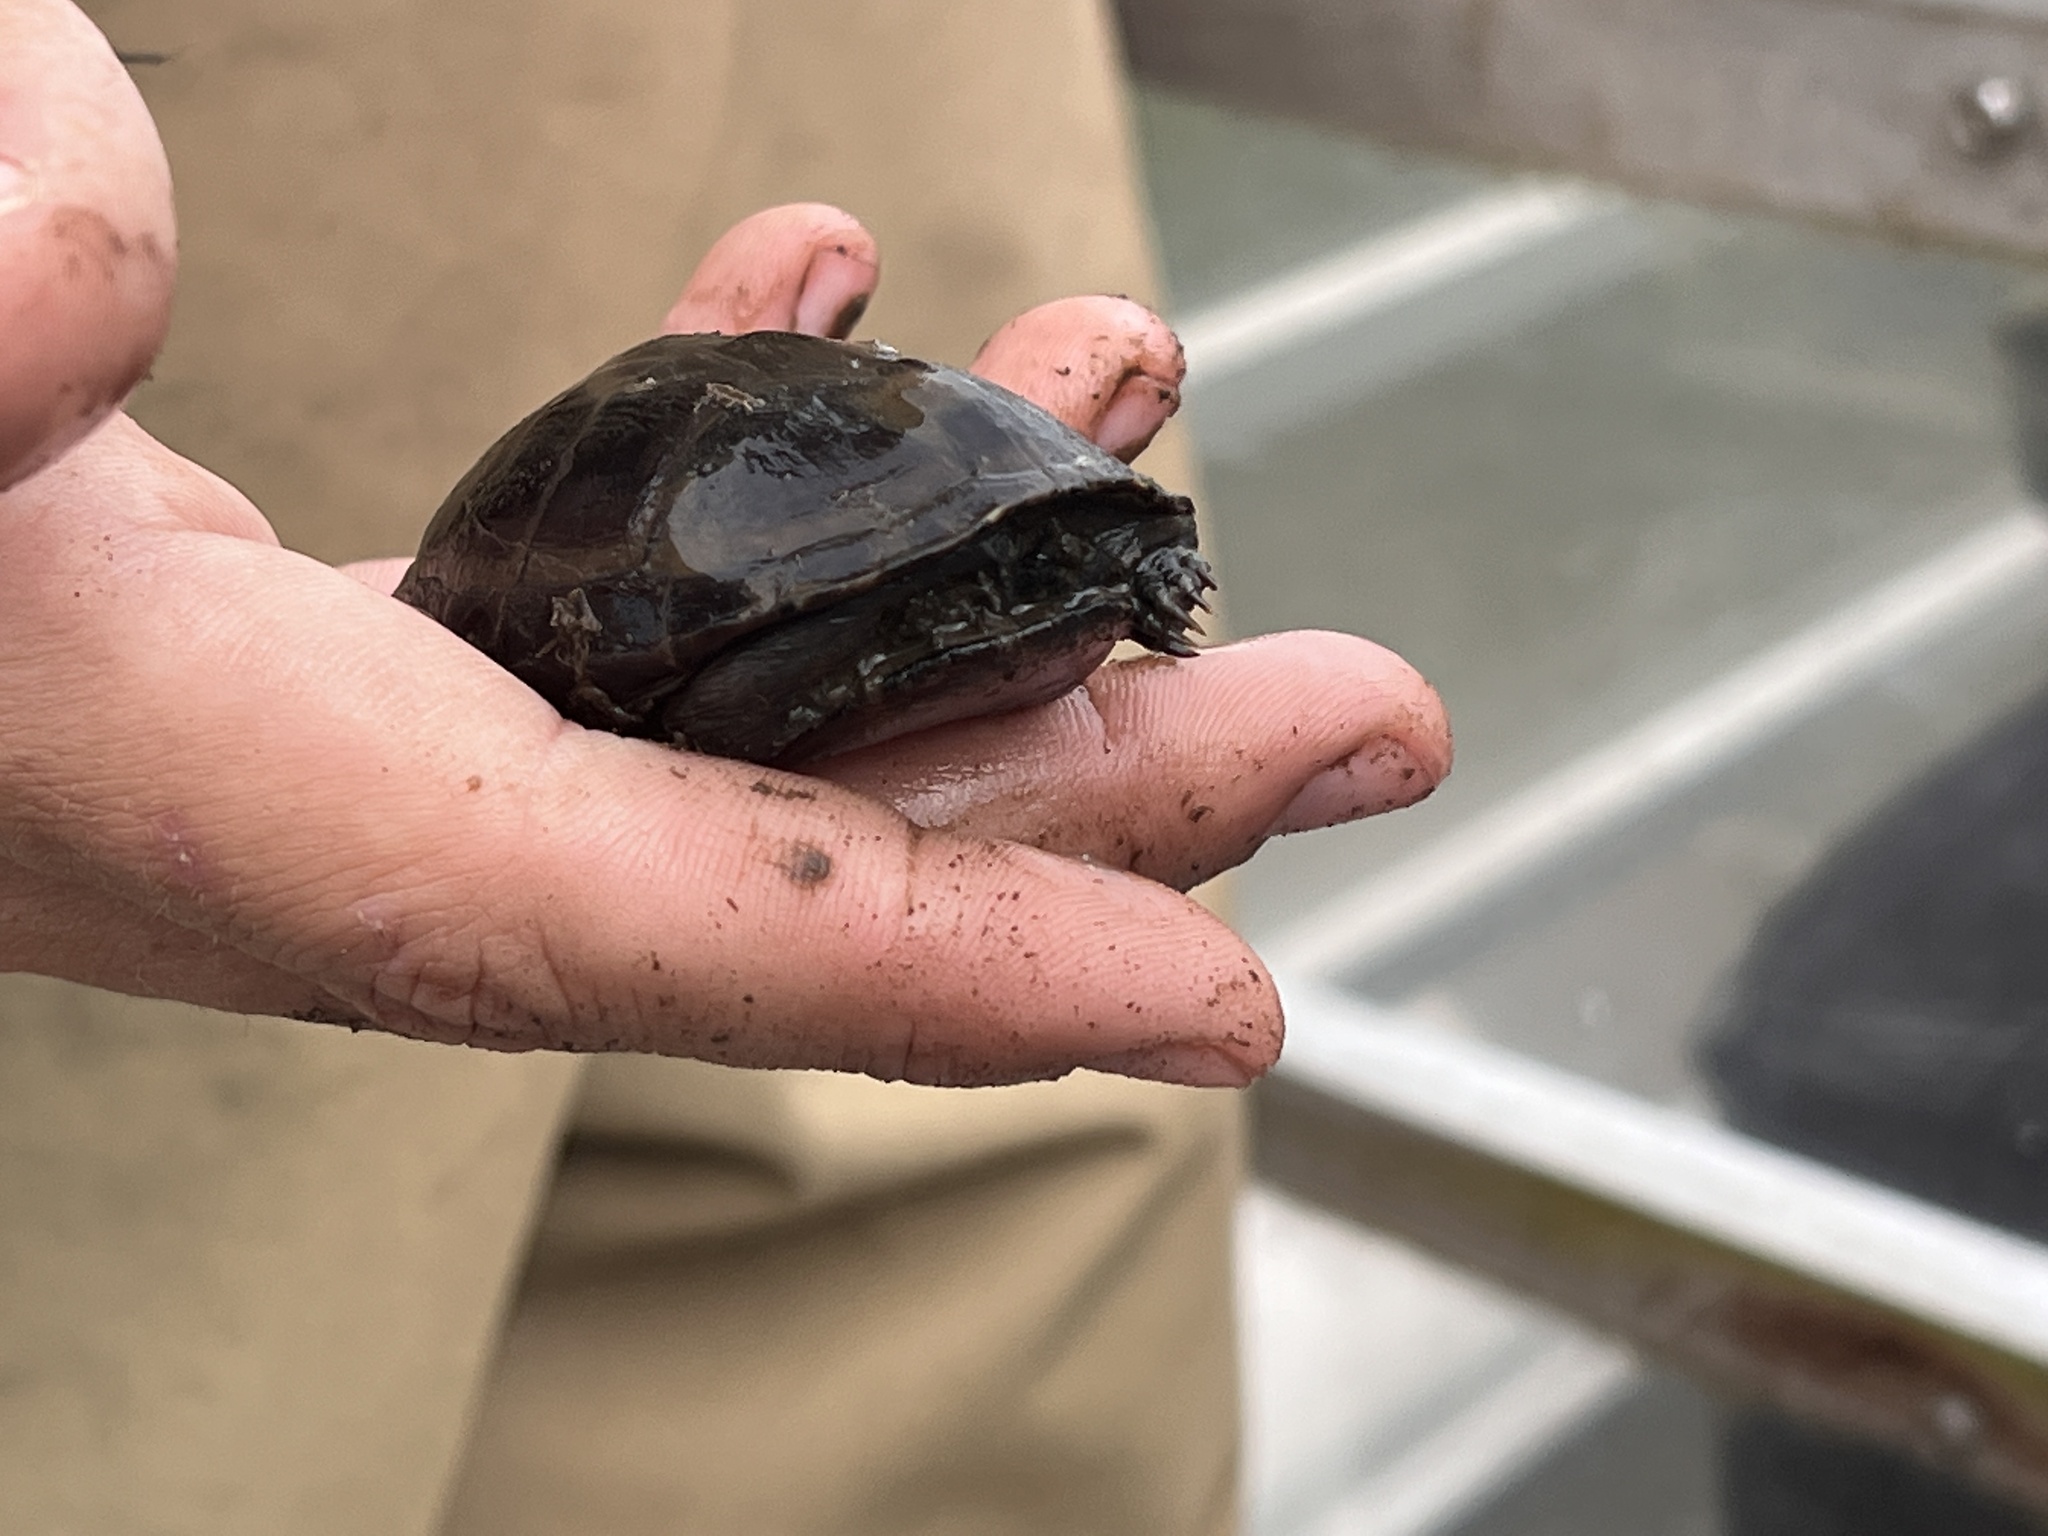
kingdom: Animalia
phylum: Chordata
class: Testudines
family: Kinosternidae
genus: Kinosternon
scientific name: Kinosternon baurii
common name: Striped mud turtle
